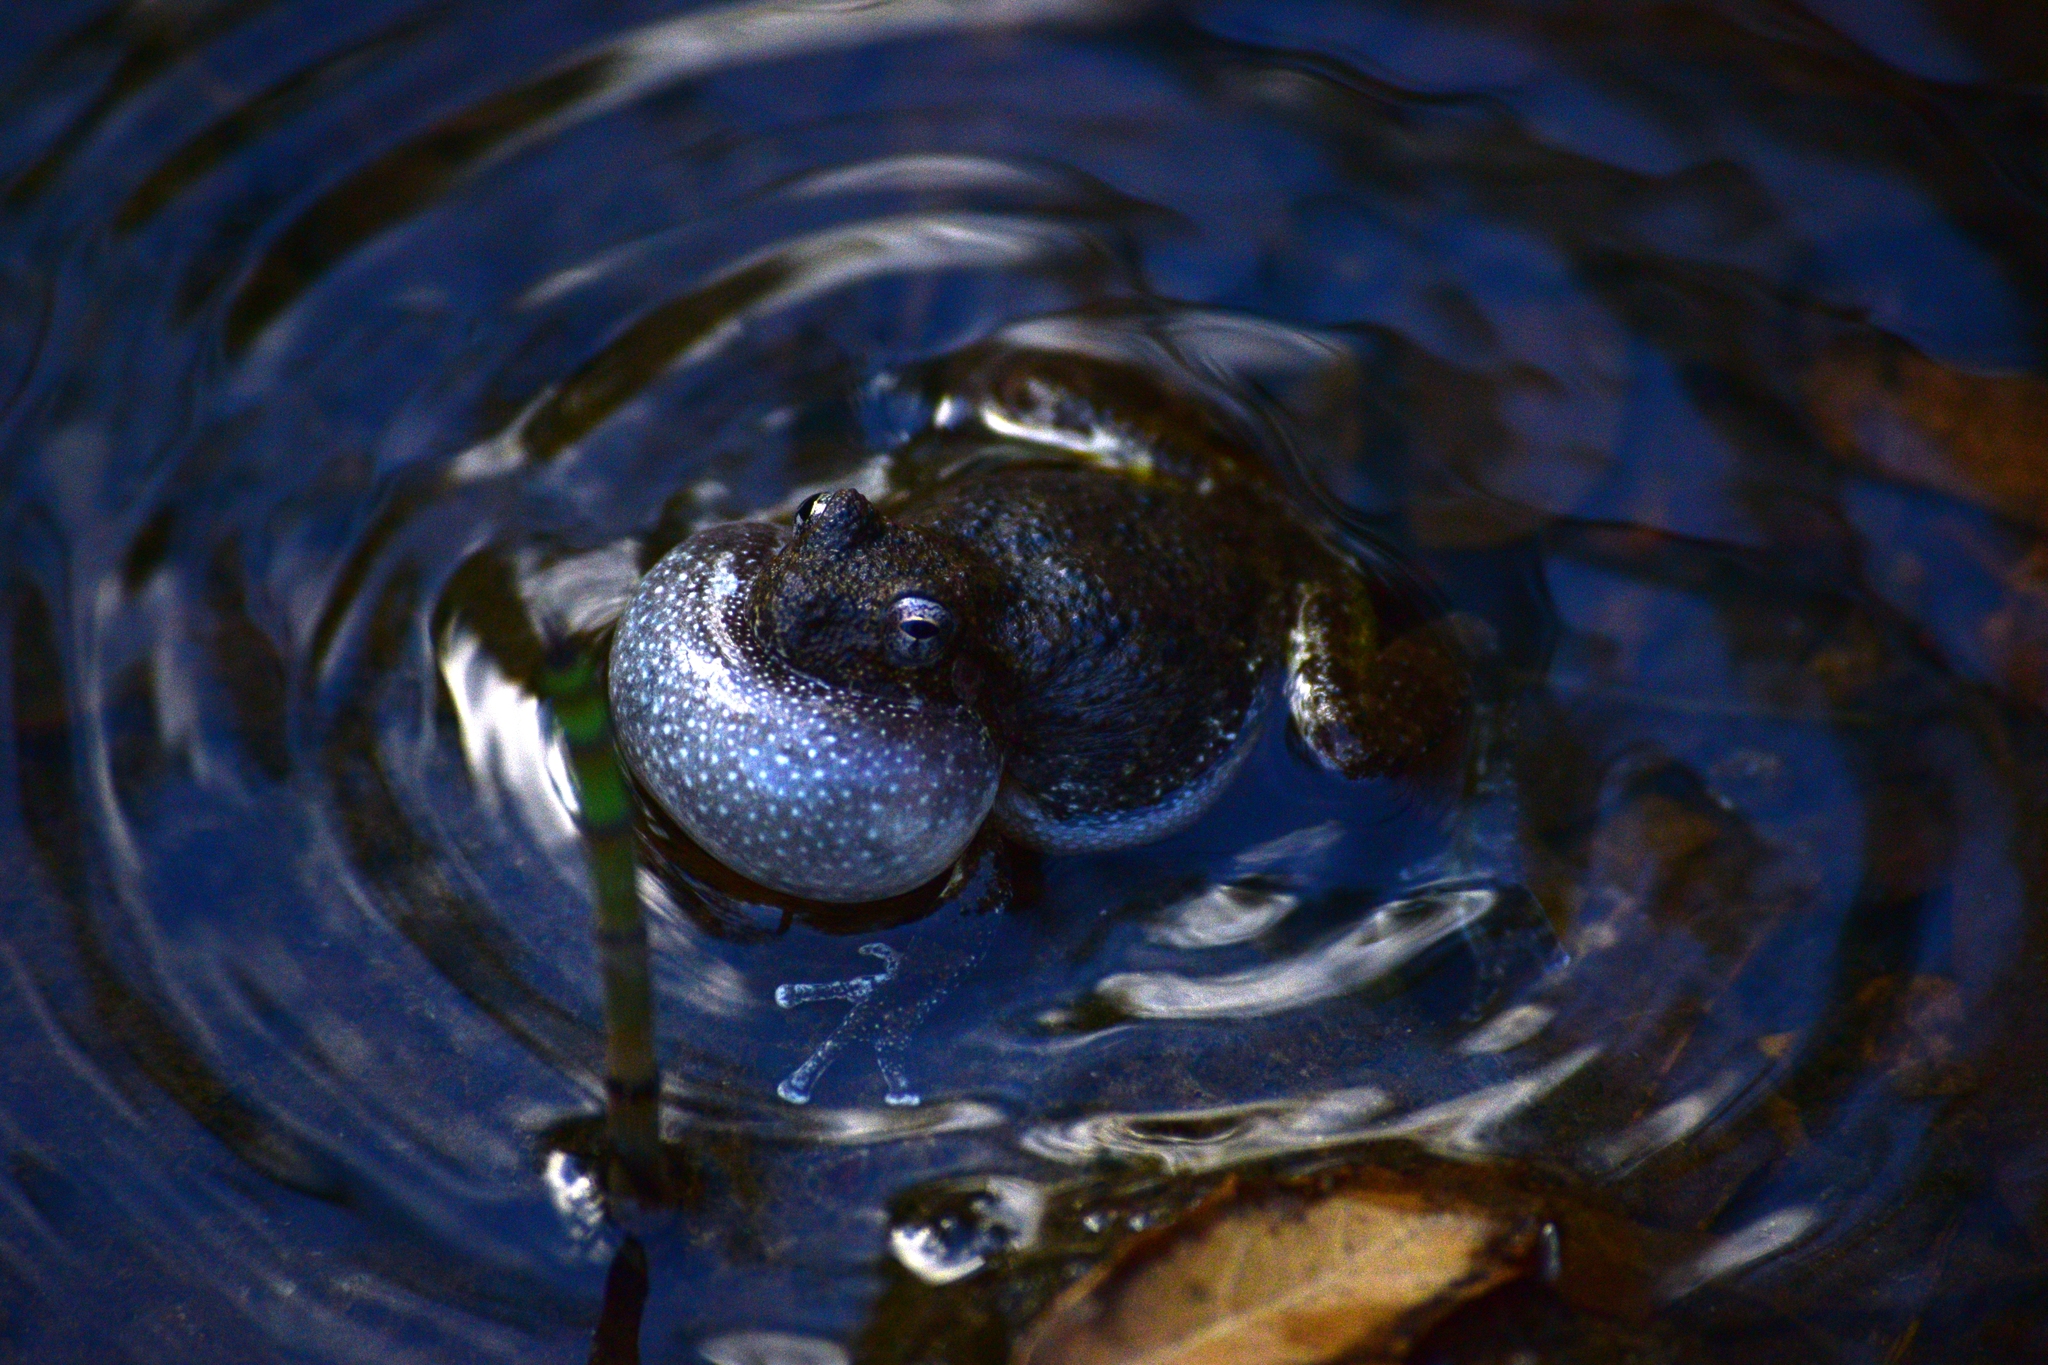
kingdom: Animalia
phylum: Chordata
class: Amphibia
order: Anura
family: Hylidae
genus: Dryophytes
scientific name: Dryophytes arenicolor
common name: Canyon treefrog
